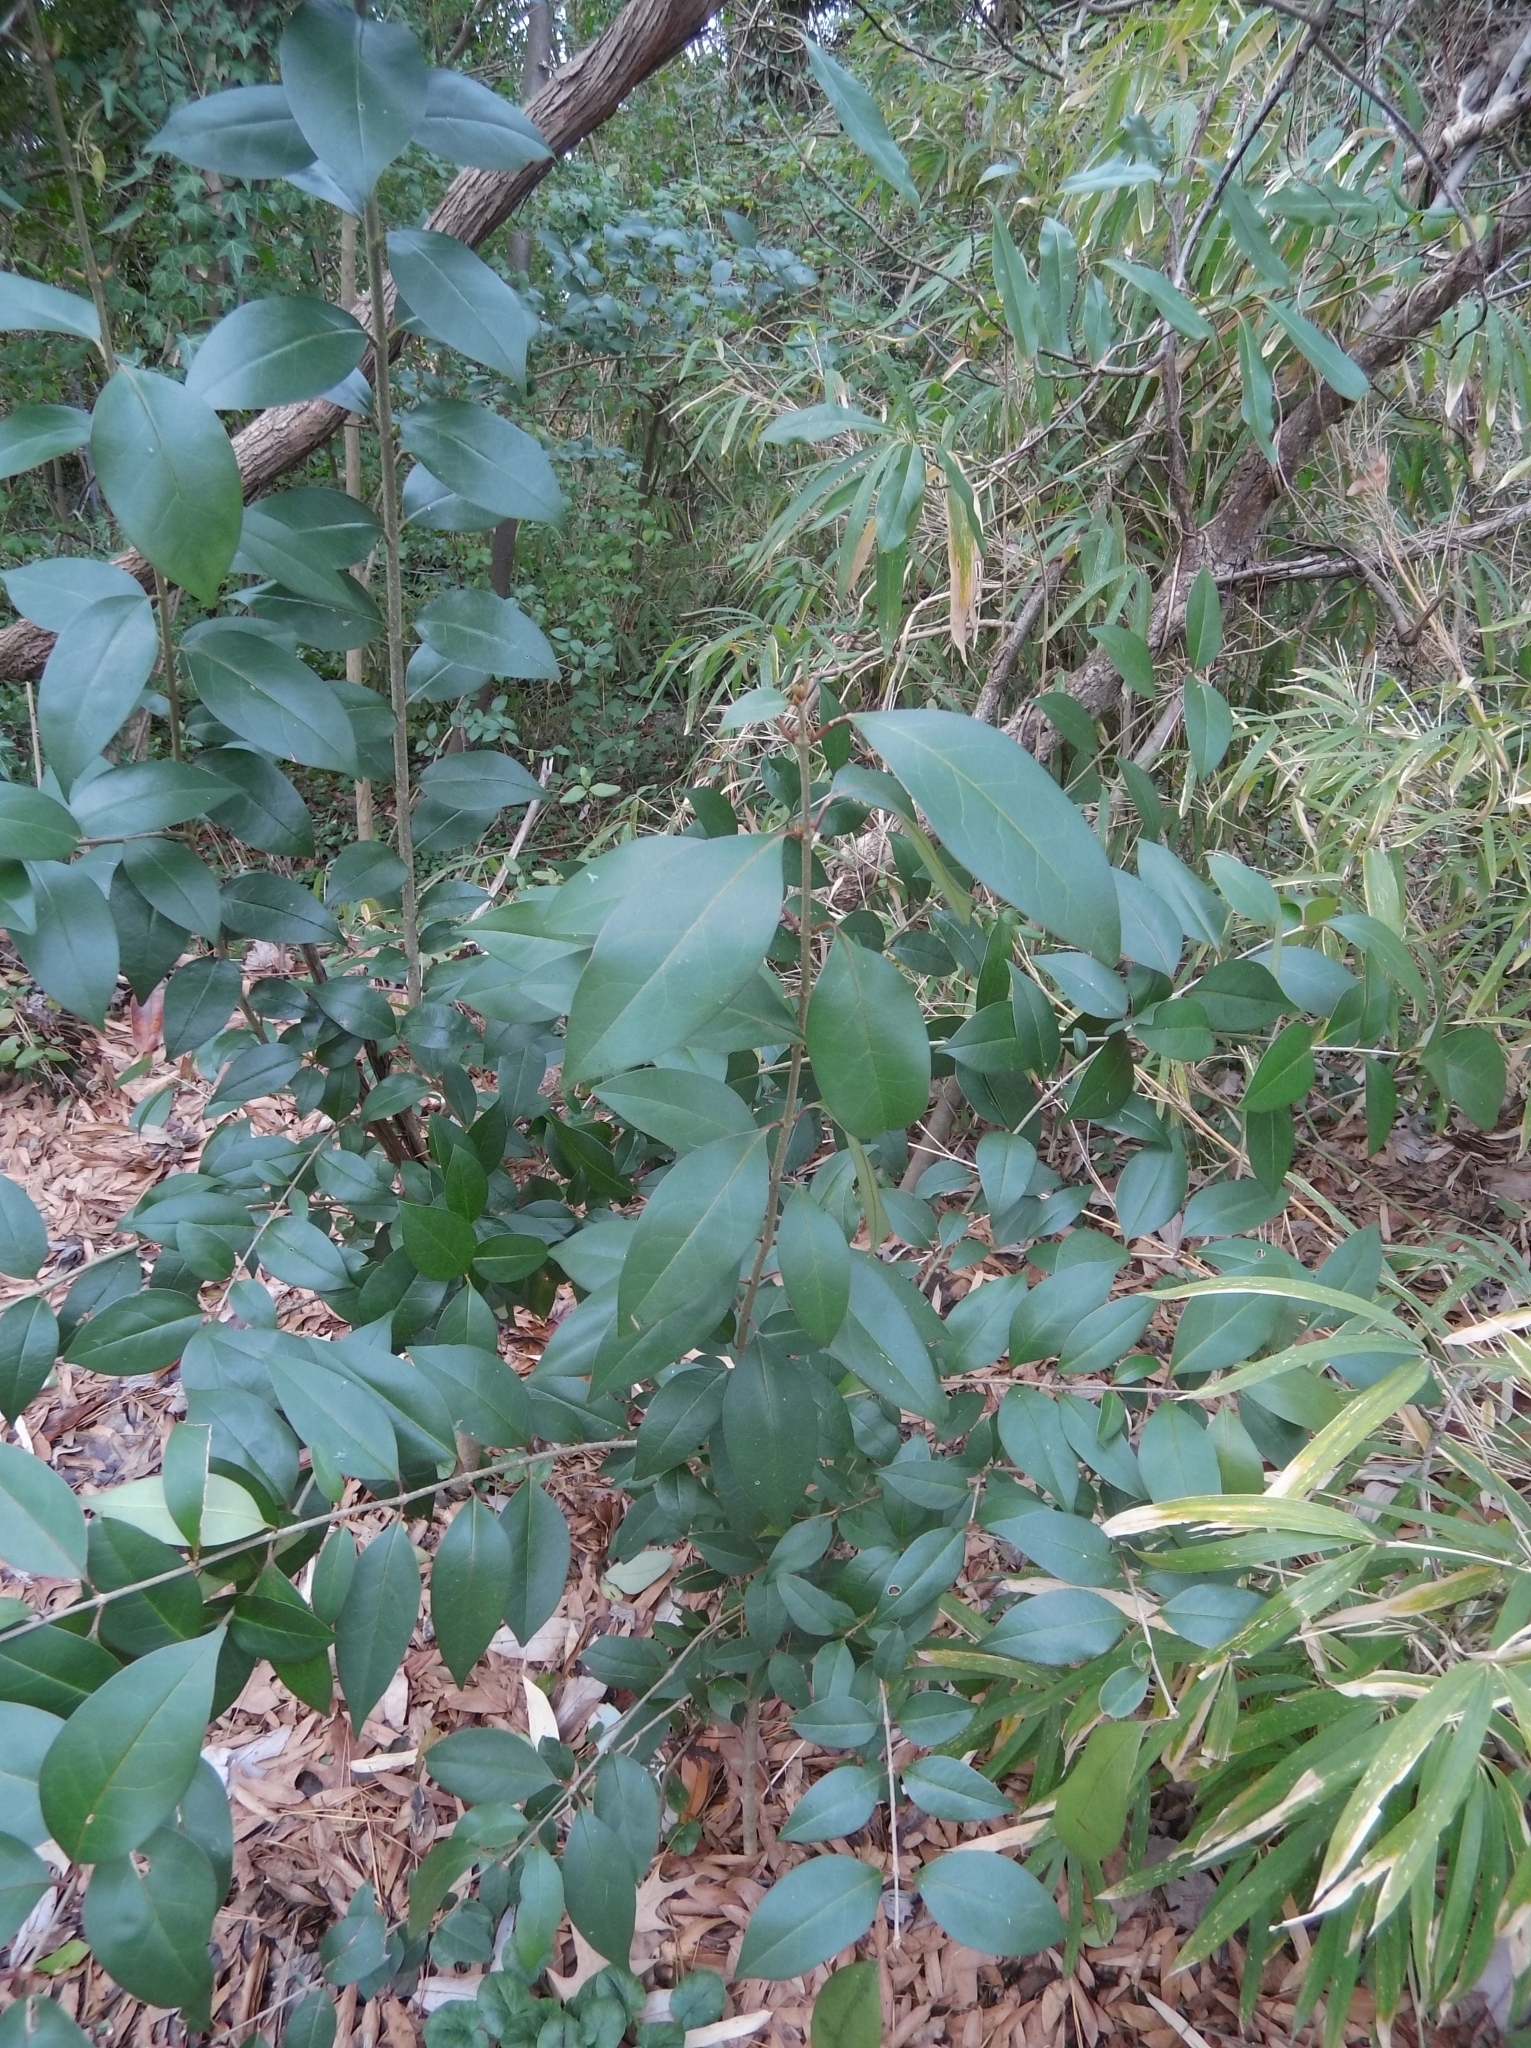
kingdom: Plantae
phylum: Tracheophyta
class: Magnoliopsida
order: Lamiales
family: Oleaceae
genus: Ligustrum
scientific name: Ligustrum lucidum
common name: Glossy privet
